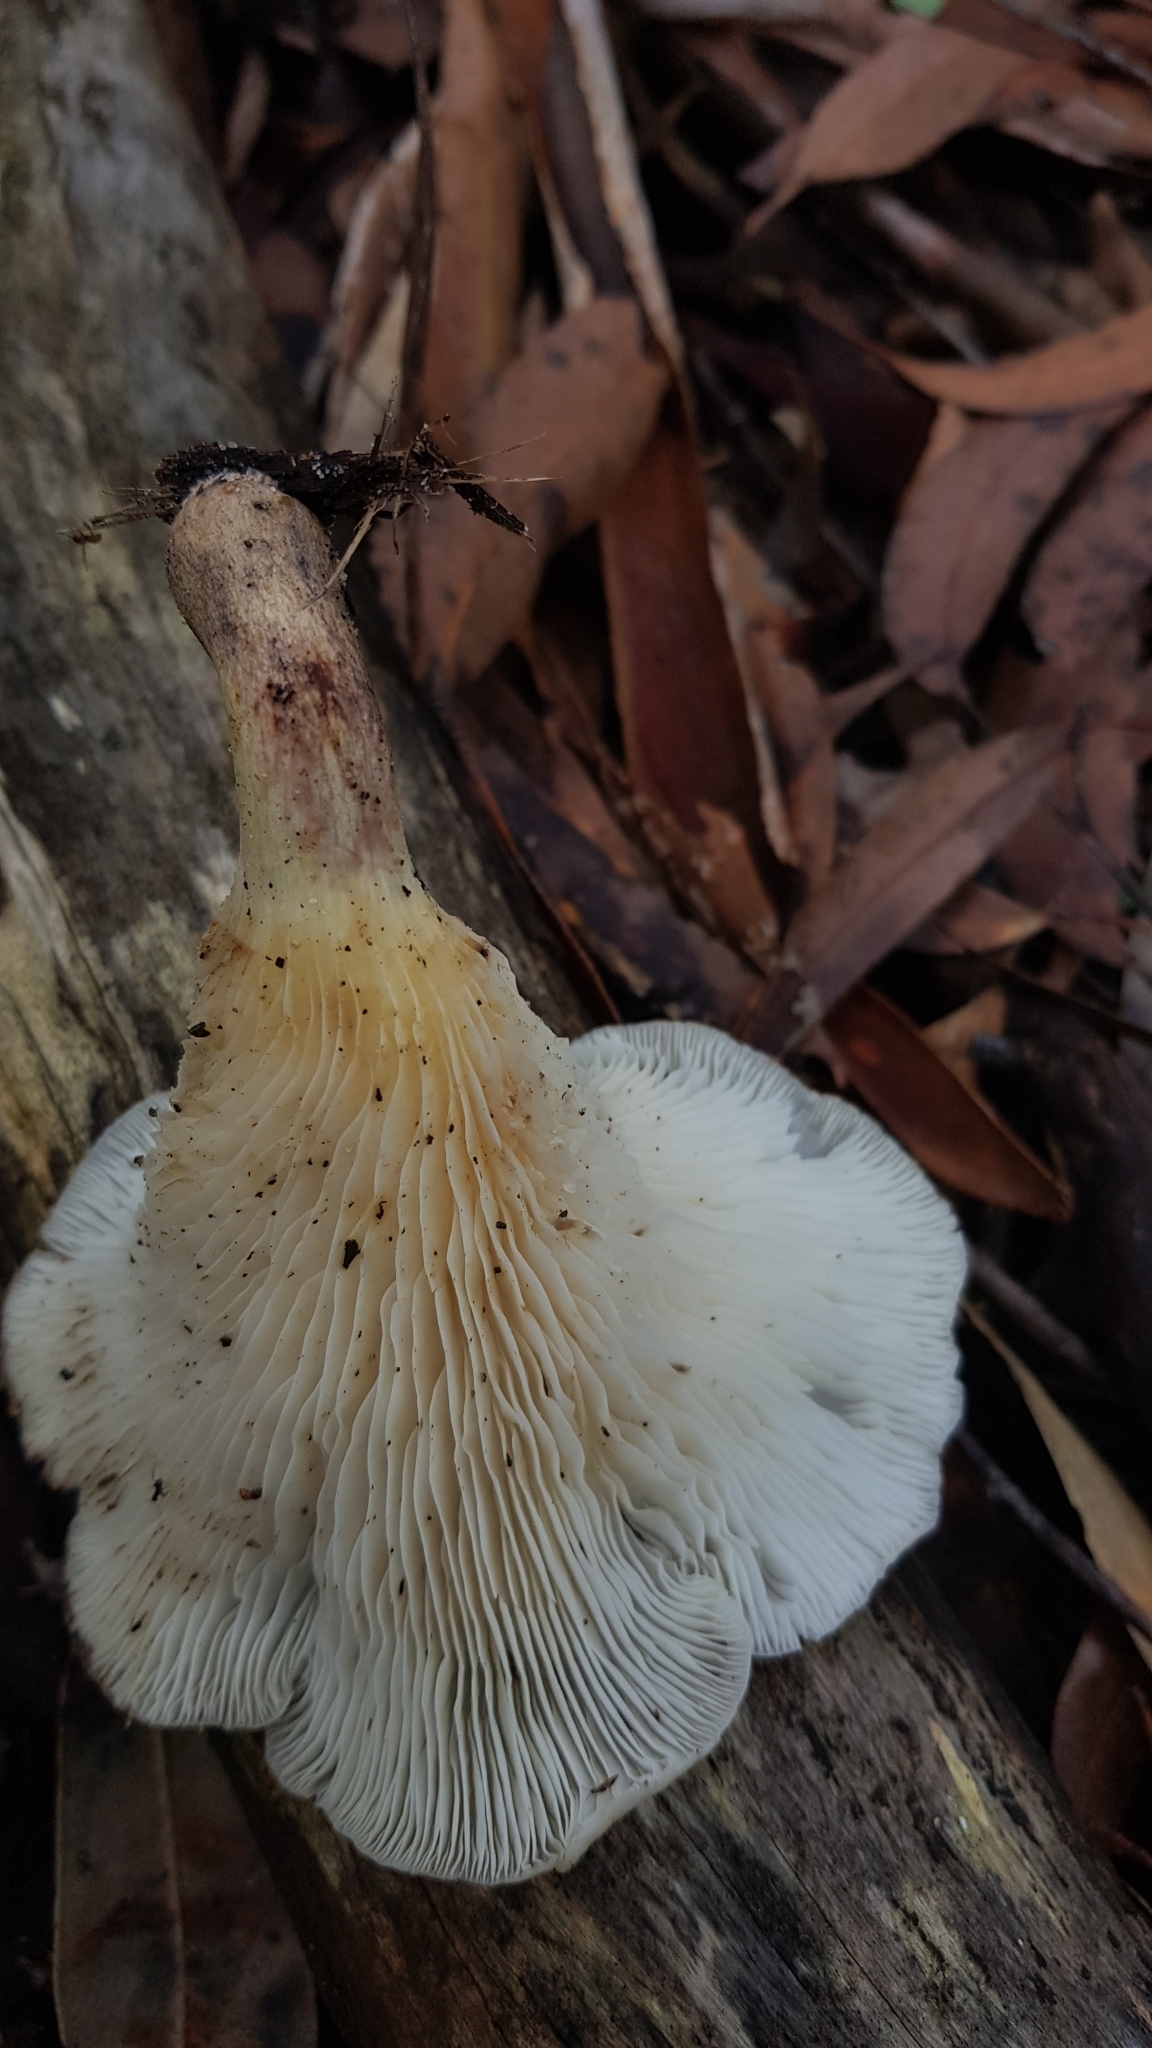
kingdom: Fungi
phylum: Basidiomycota
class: Agaricomycetes
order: Agaricales
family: Omphalotaceae
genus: Omphalotus
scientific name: Omphalotus nidiformis
